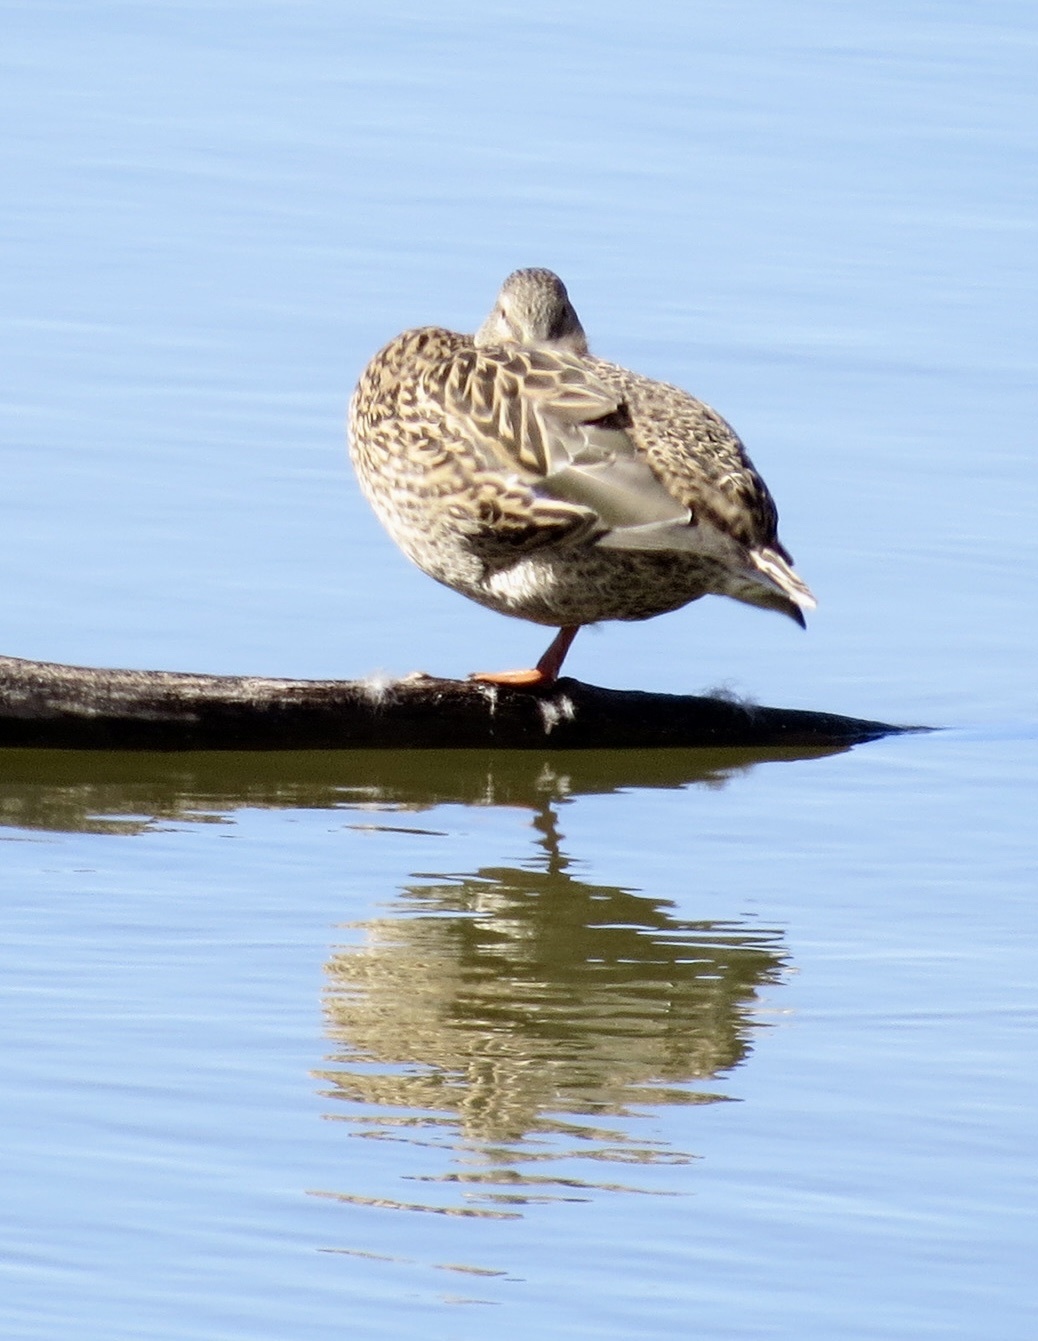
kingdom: Animalia
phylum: Chordata
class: Aves
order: Anseriformes
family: Anatidae
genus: Anas
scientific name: Anas platyrhynchos
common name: Mallard
